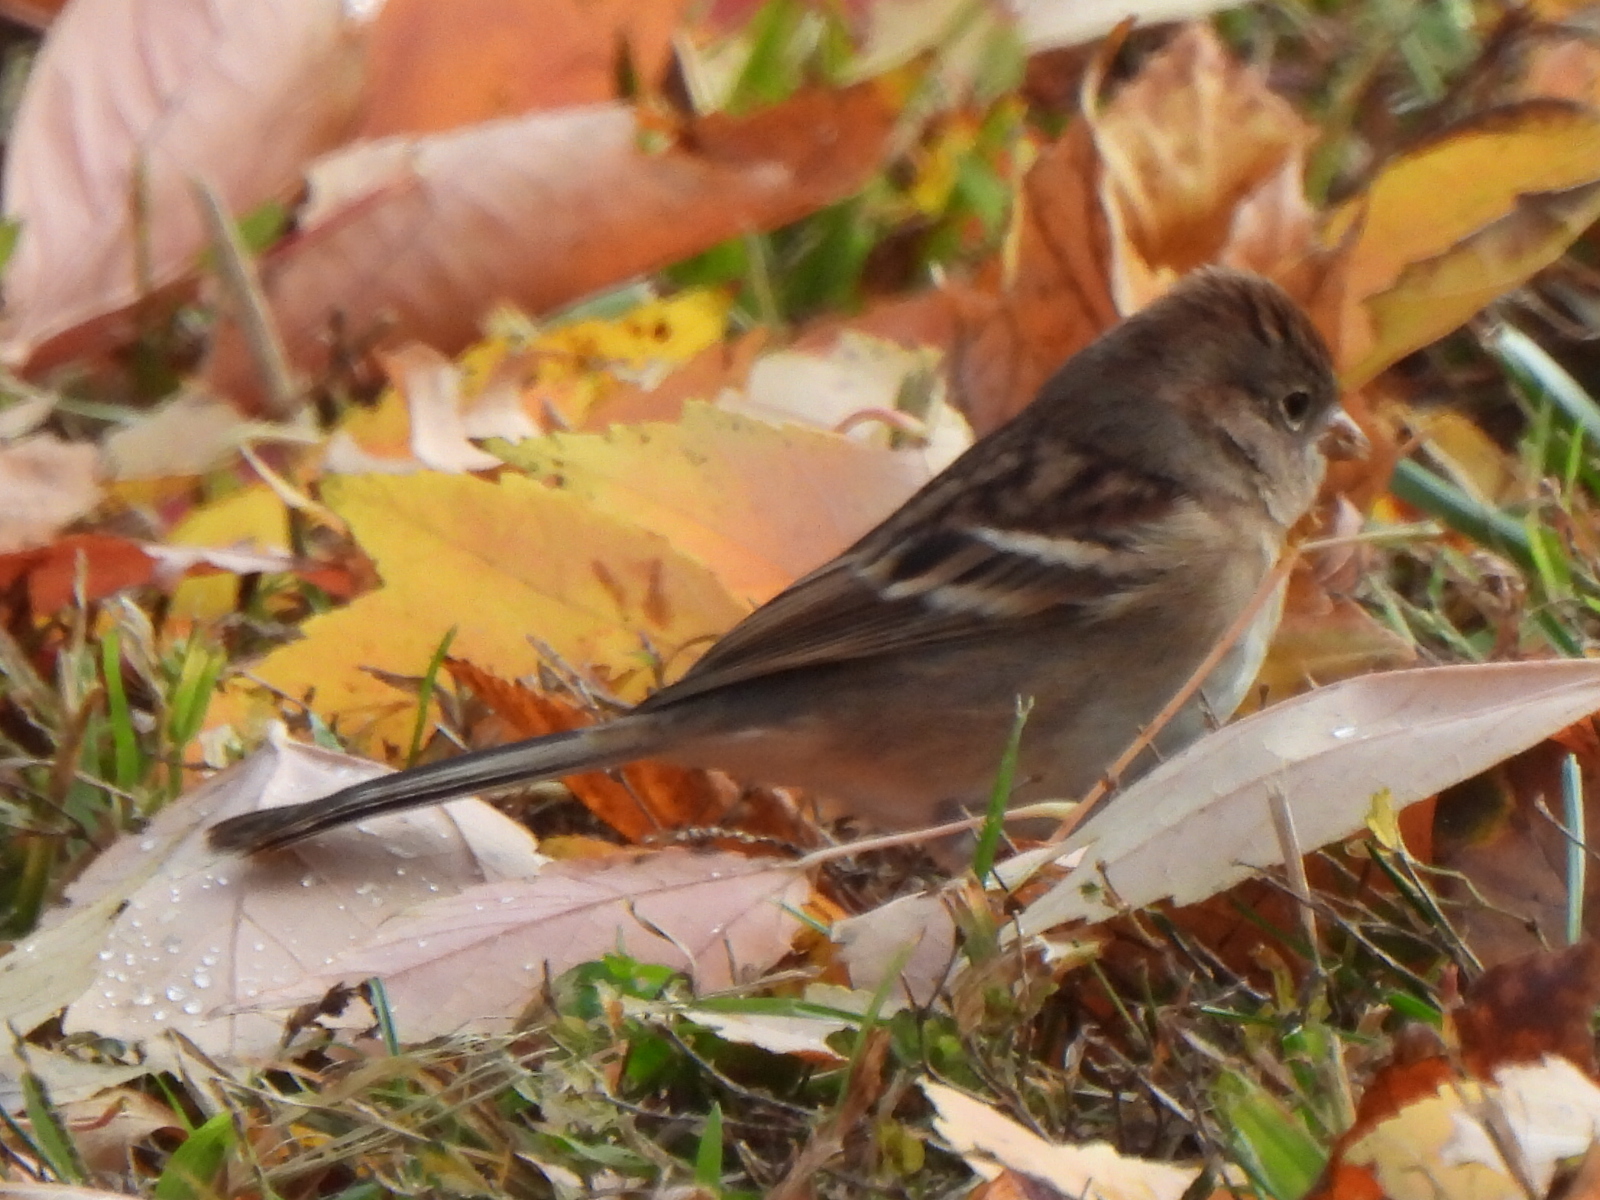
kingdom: Animalia
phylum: Chordata
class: Aves
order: Passeriformes
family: Passerellidae
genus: Spizella
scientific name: Spizella pusilla
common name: Field sparrow
